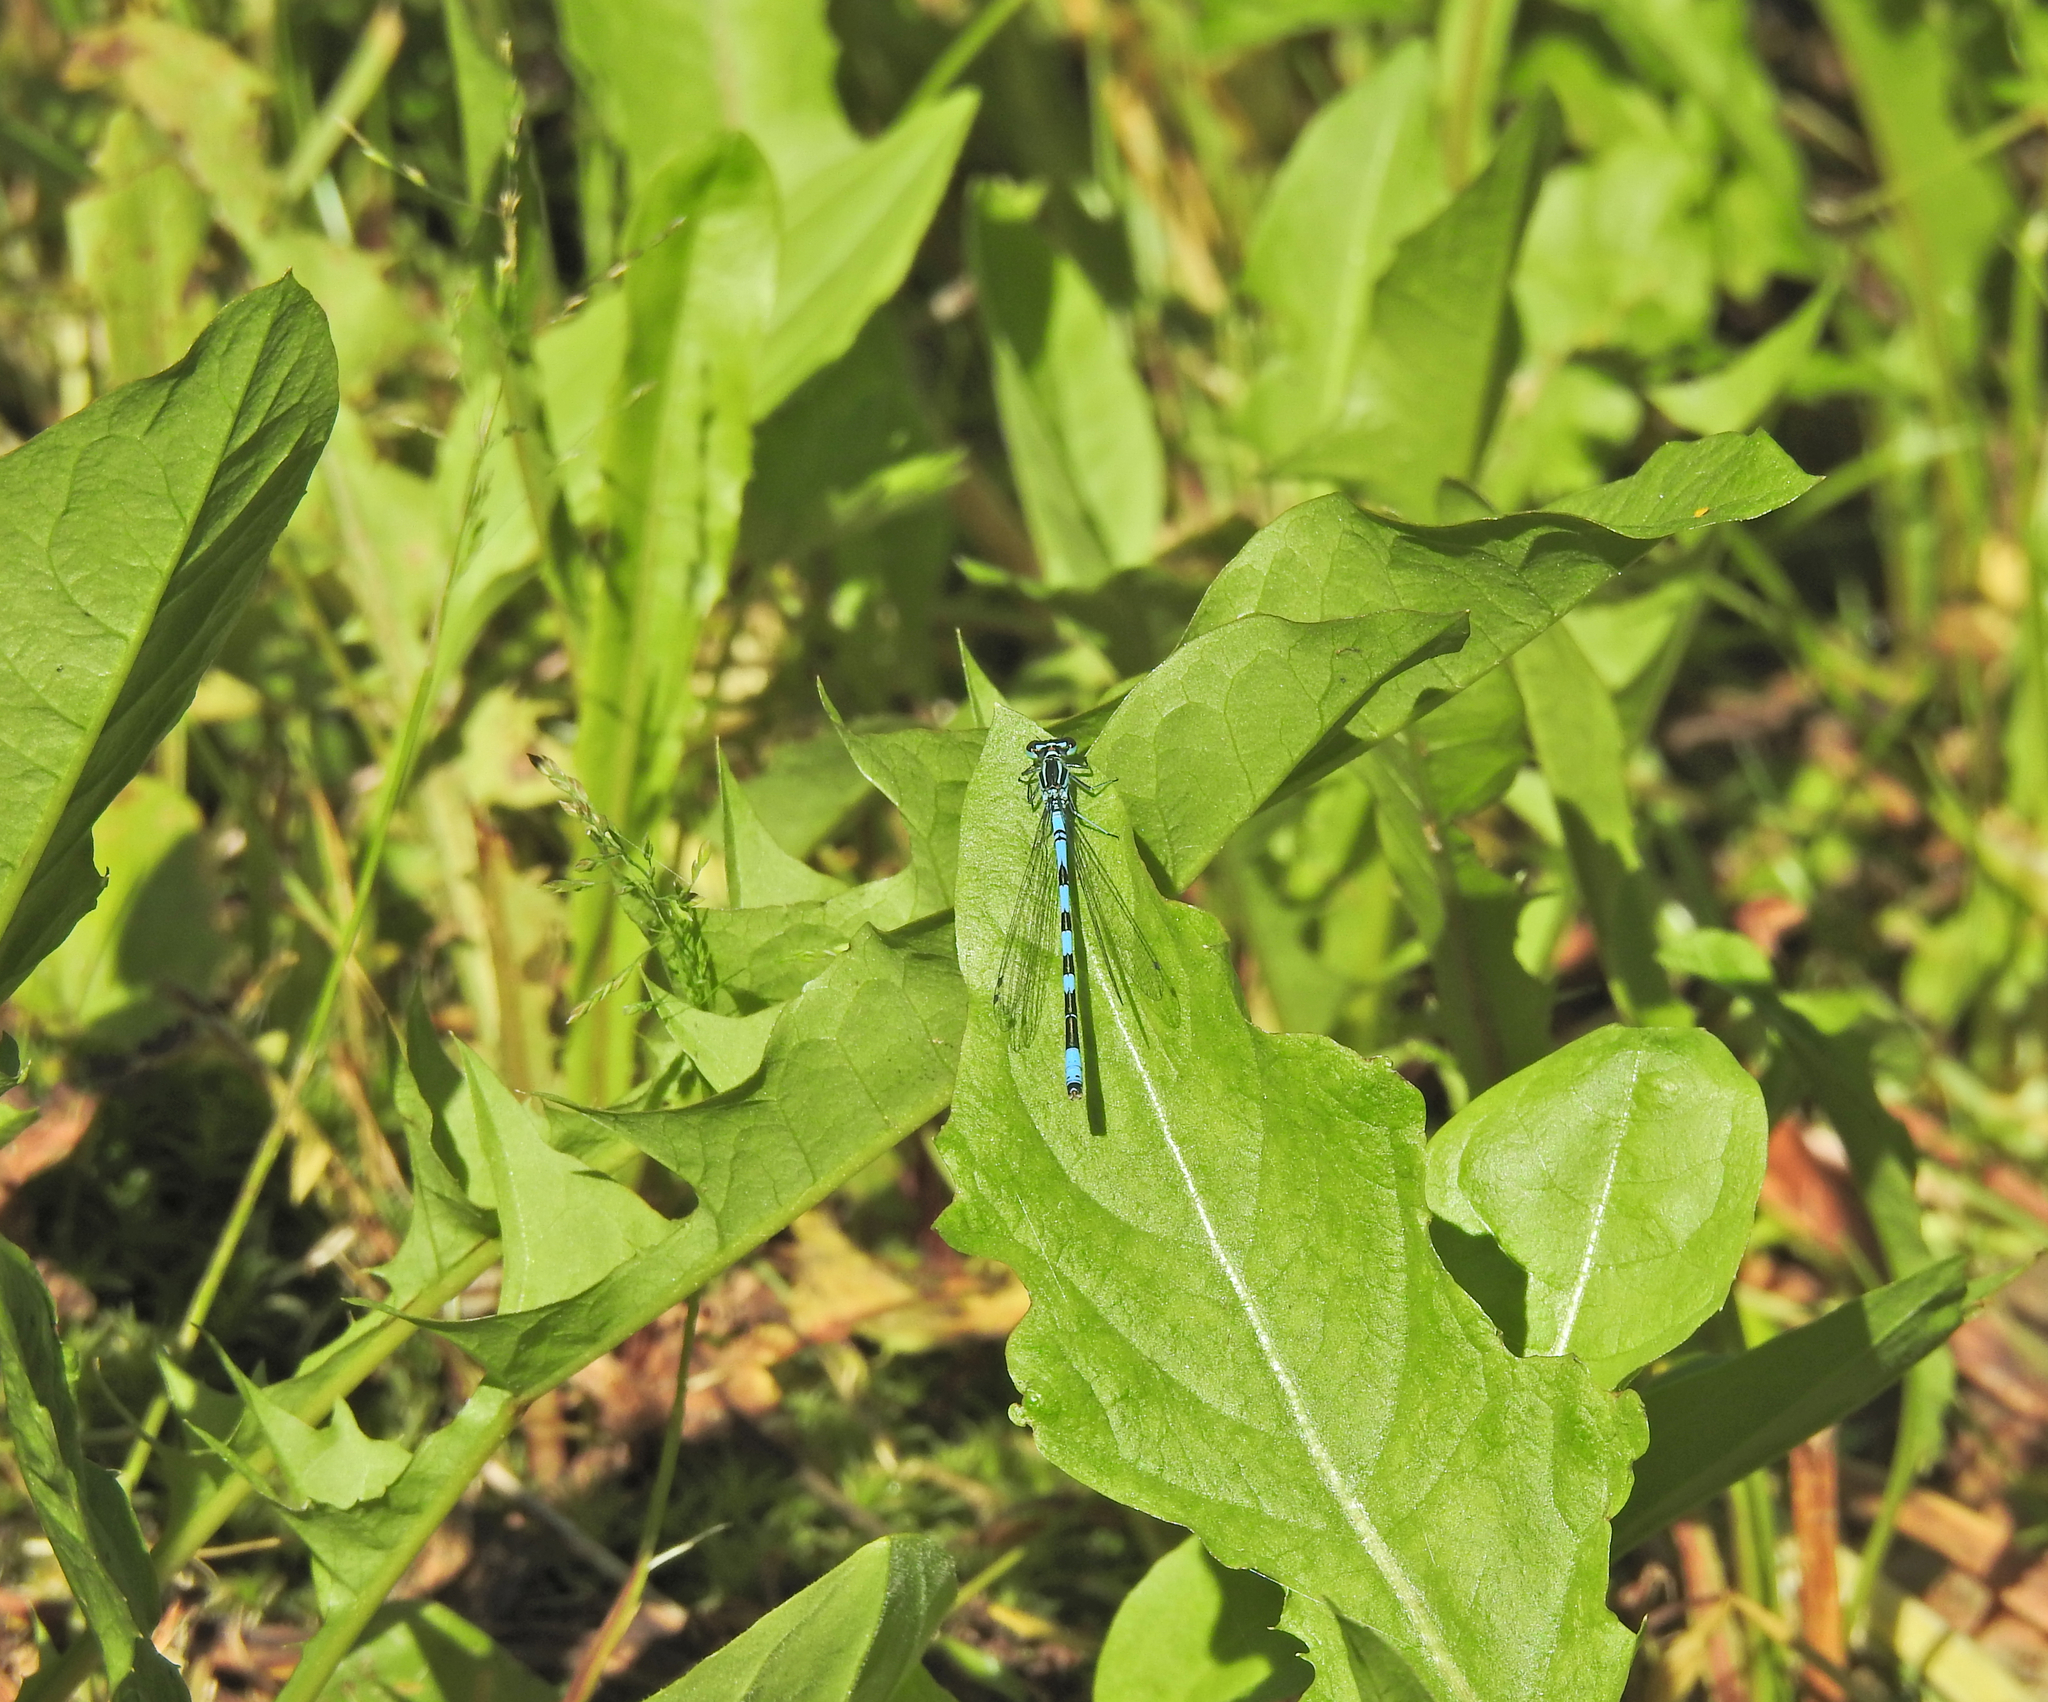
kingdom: Animalia
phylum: Arthropoda
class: Insecta
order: Odonata
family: Coenagrionidae
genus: Coenagrion
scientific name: Coenagrion hastulatum
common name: Spearhead bluet
